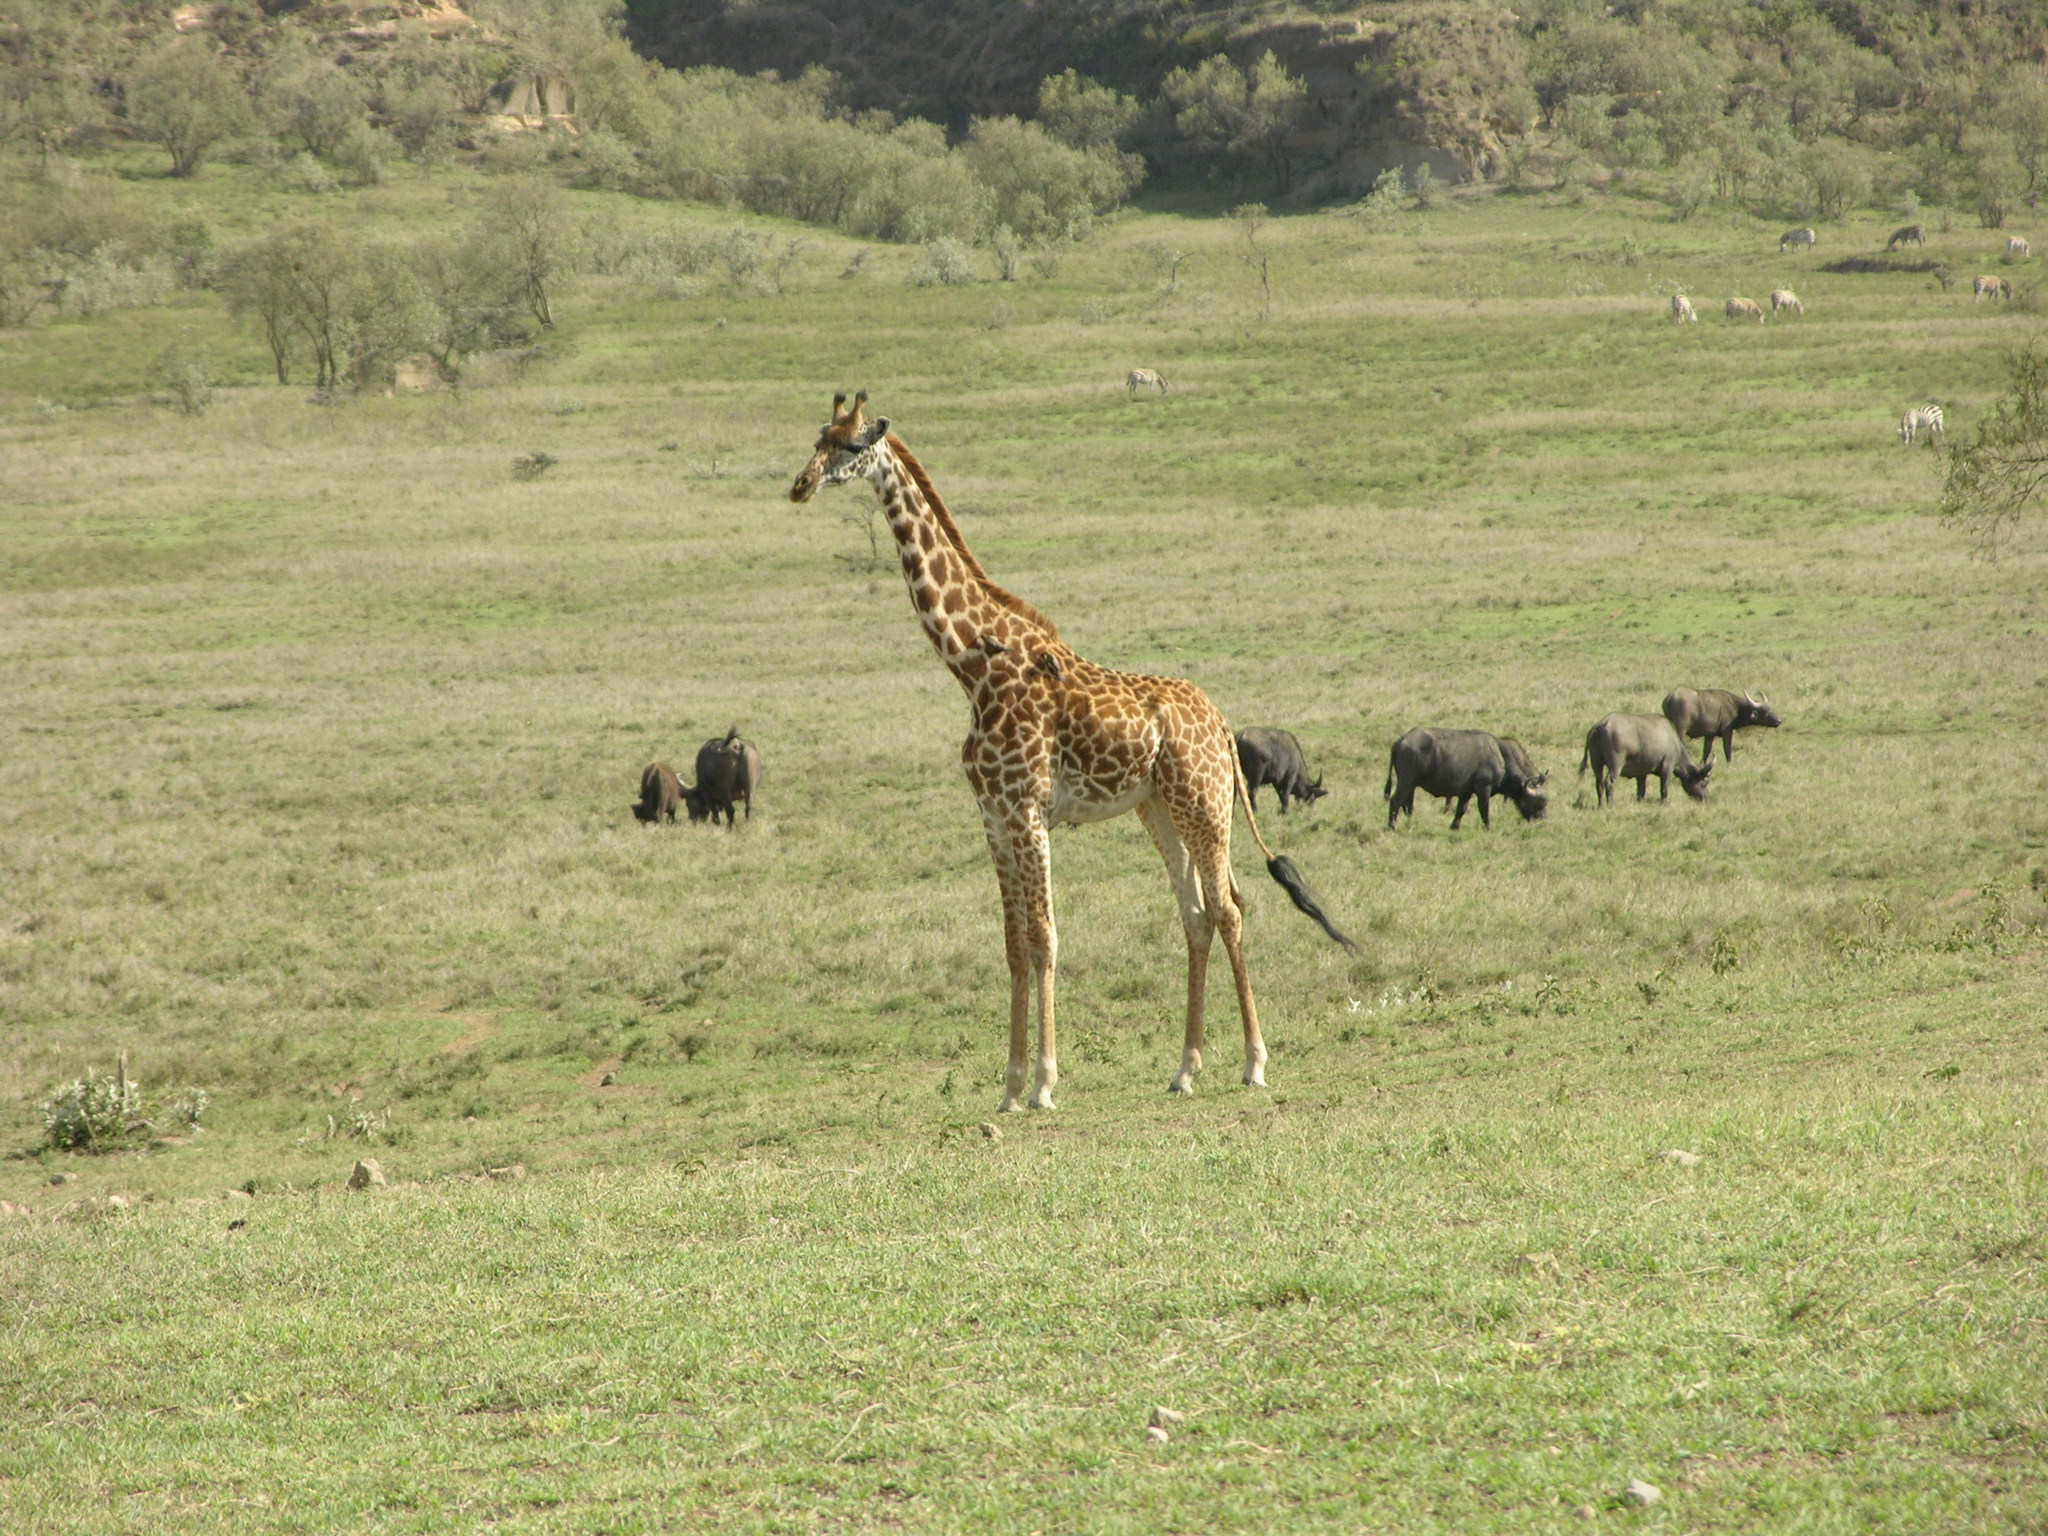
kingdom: Animalia
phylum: Chordata
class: Mammalia
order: Artiodactyla
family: Bovidae
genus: Syncerus
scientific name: Syncerus caffer
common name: African buffalo
